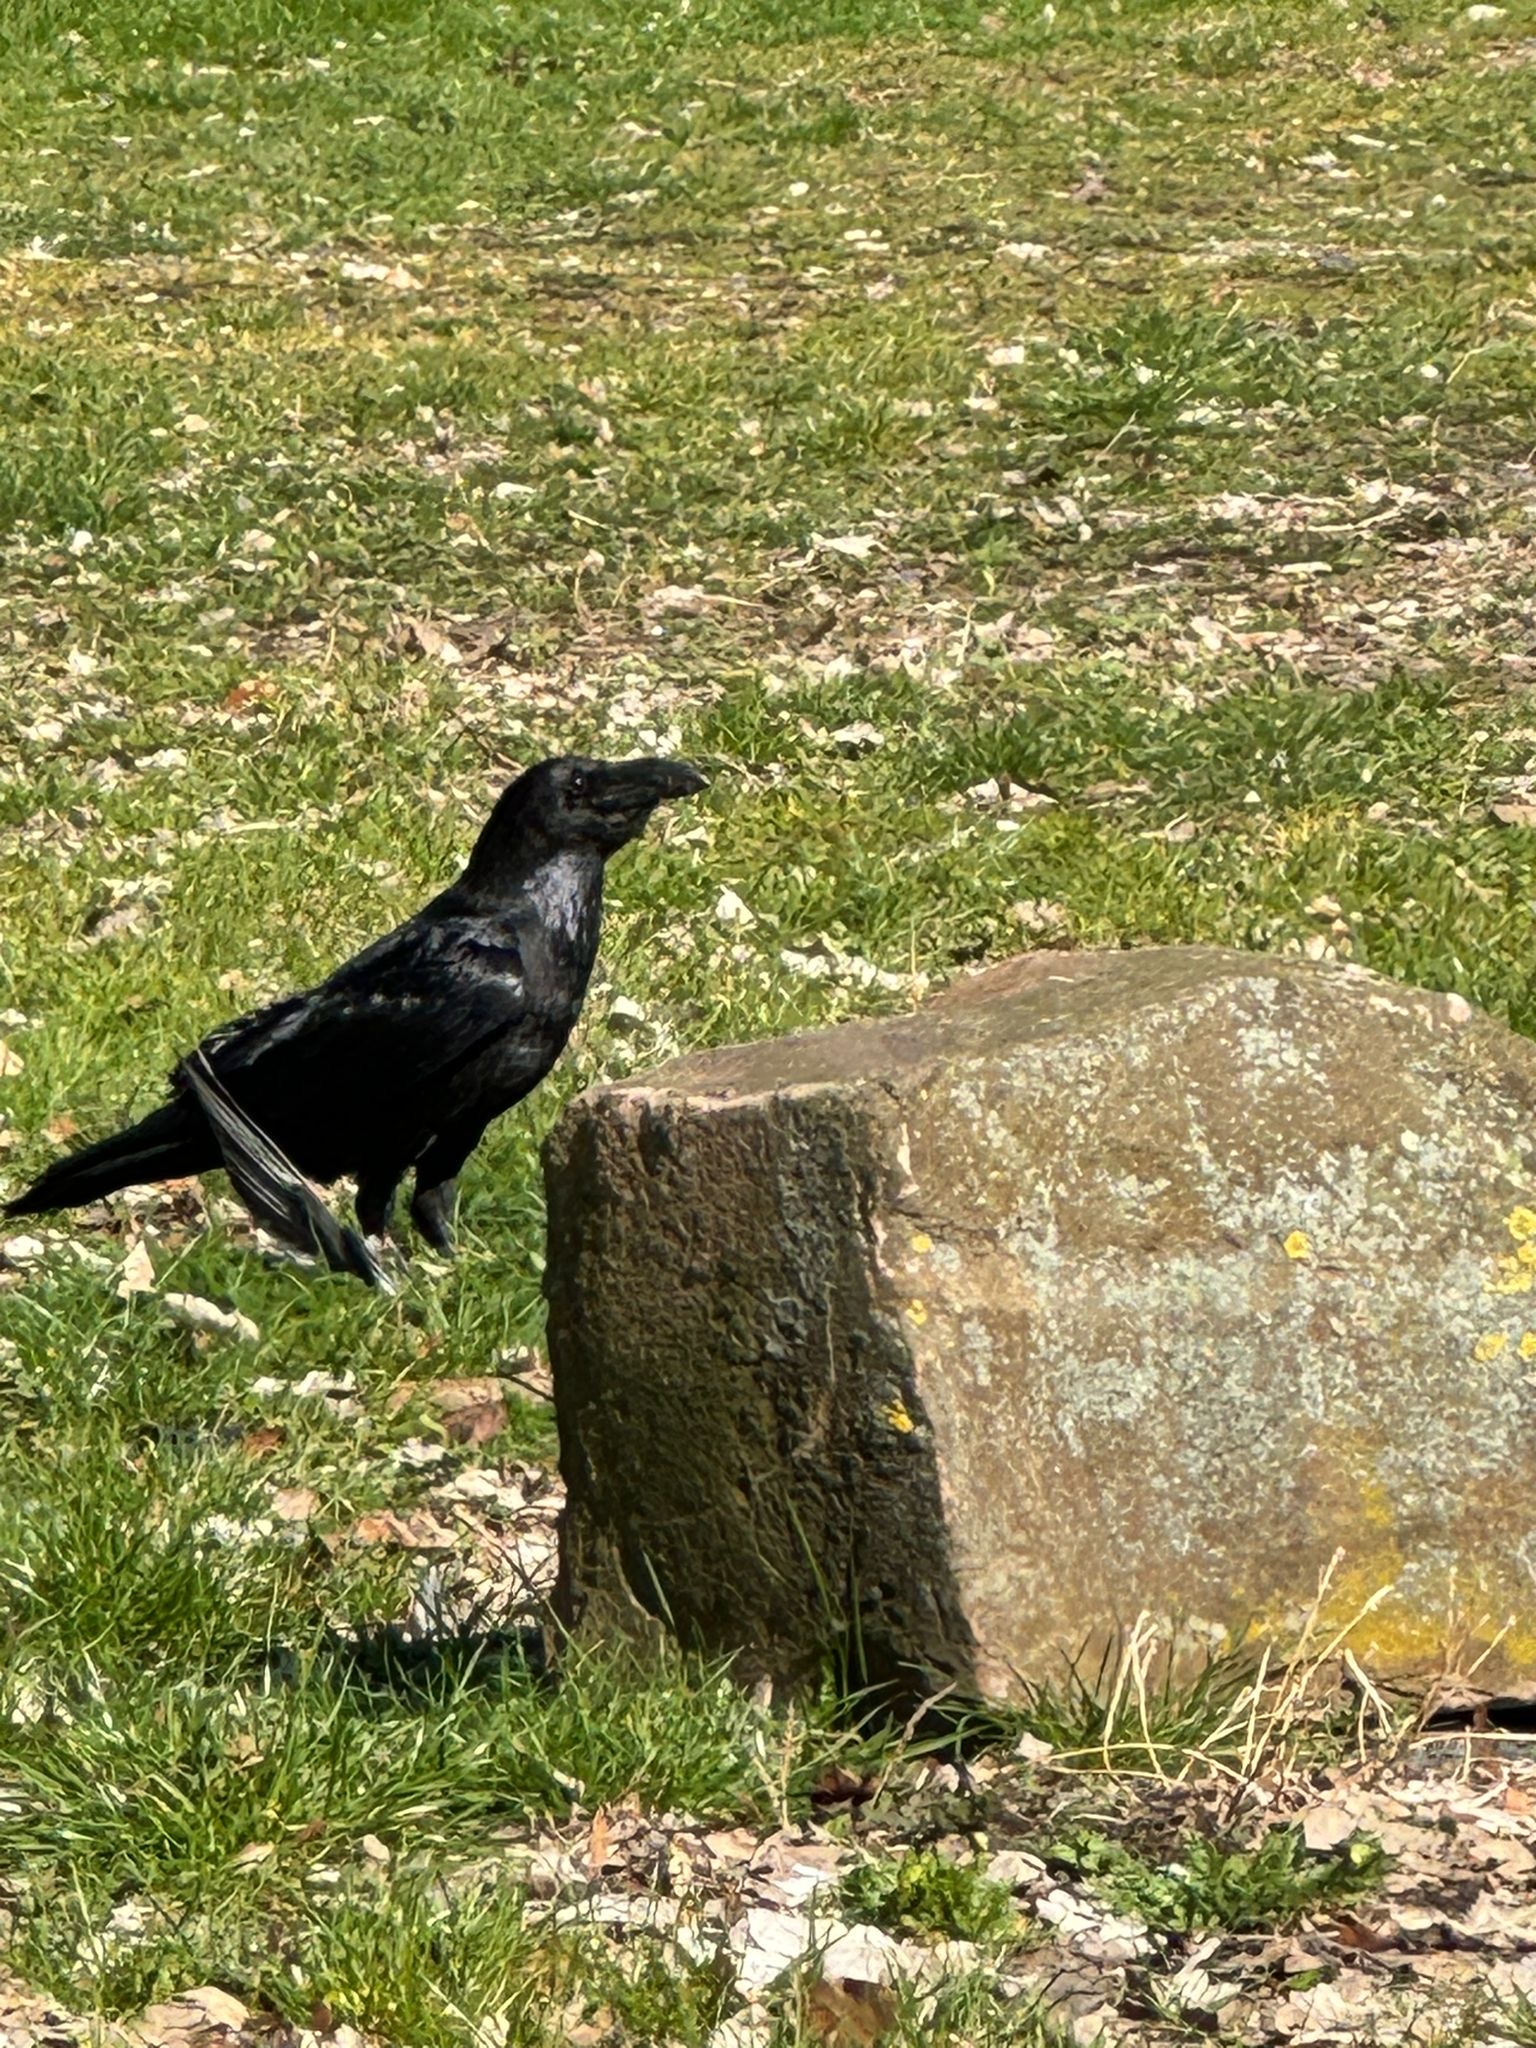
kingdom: Animalia
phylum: Chordata
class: Aves
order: Passeriformes
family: Corvidae
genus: Corvus
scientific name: Corvus corax
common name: Common raven
